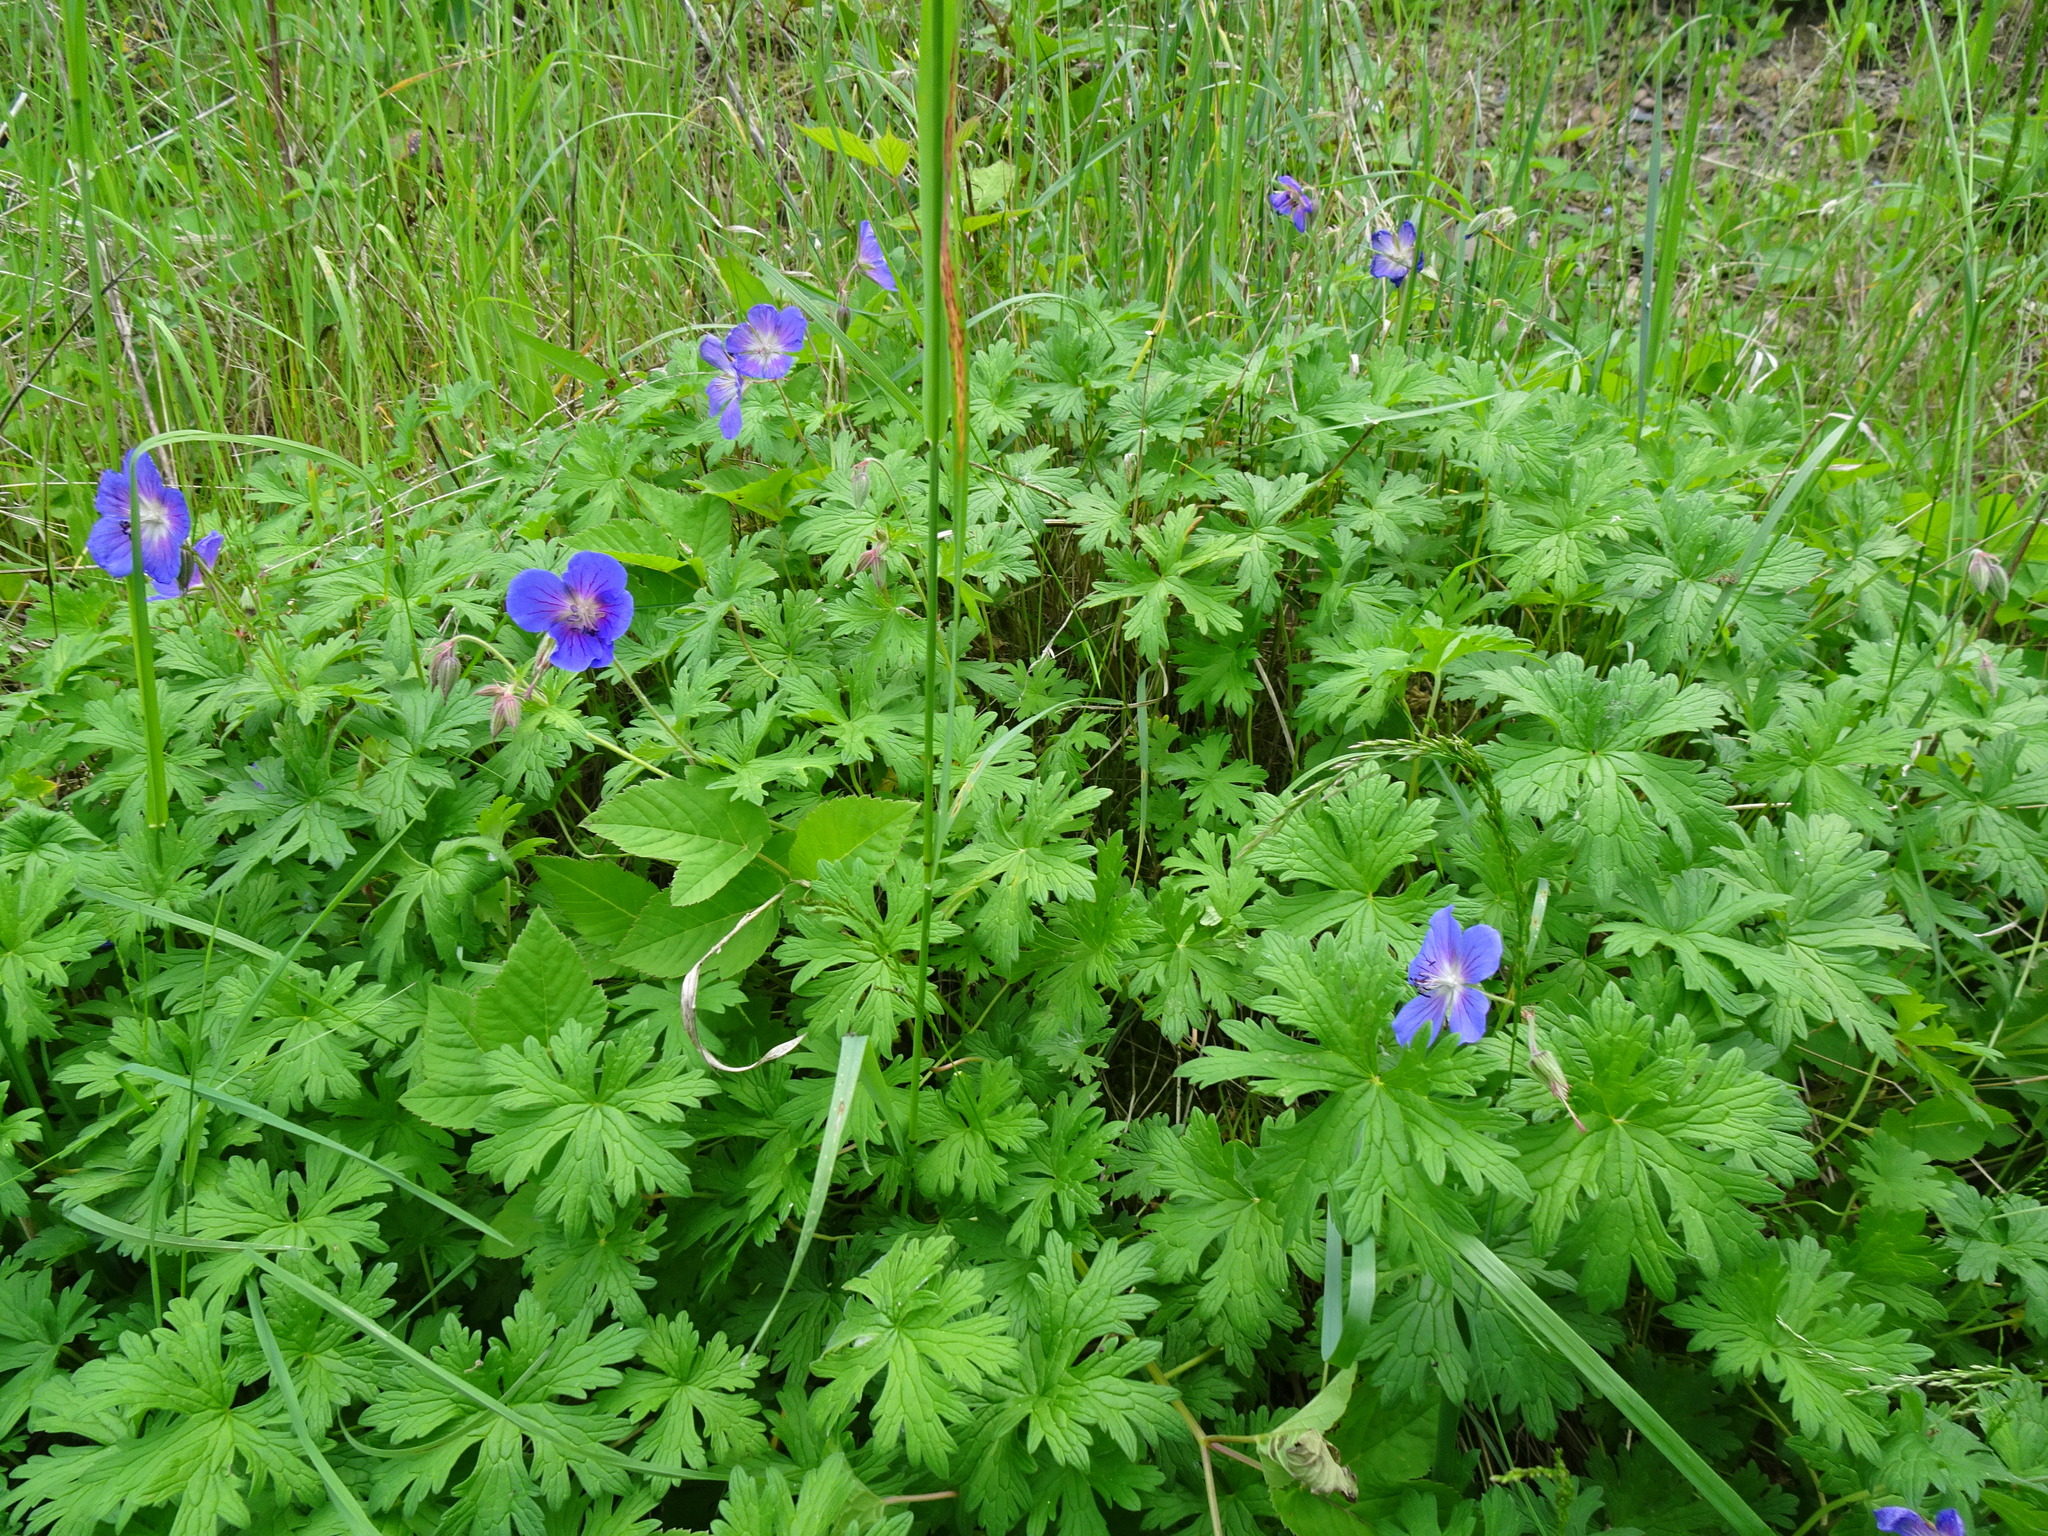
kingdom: Plantae
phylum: Tracheophyta
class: Magnoliopsida
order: Geraniales
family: Geraniaceae
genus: Geranium
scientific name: Geranium pratense
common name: Meadow crane's-bill
